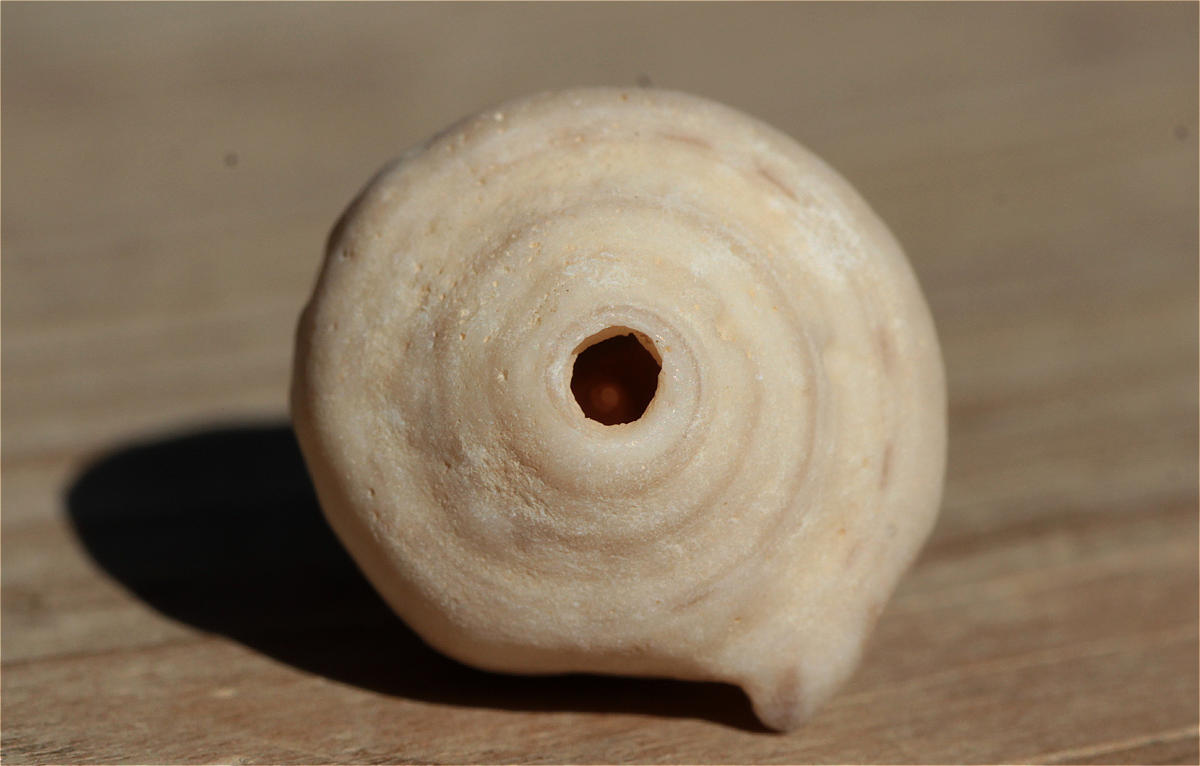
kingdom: Animalia
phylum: Mollusca
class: Gastropoda
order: Neogastropoda
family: Conidae
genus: Conus
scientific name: Conus taeniatus
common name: Ringed cone
